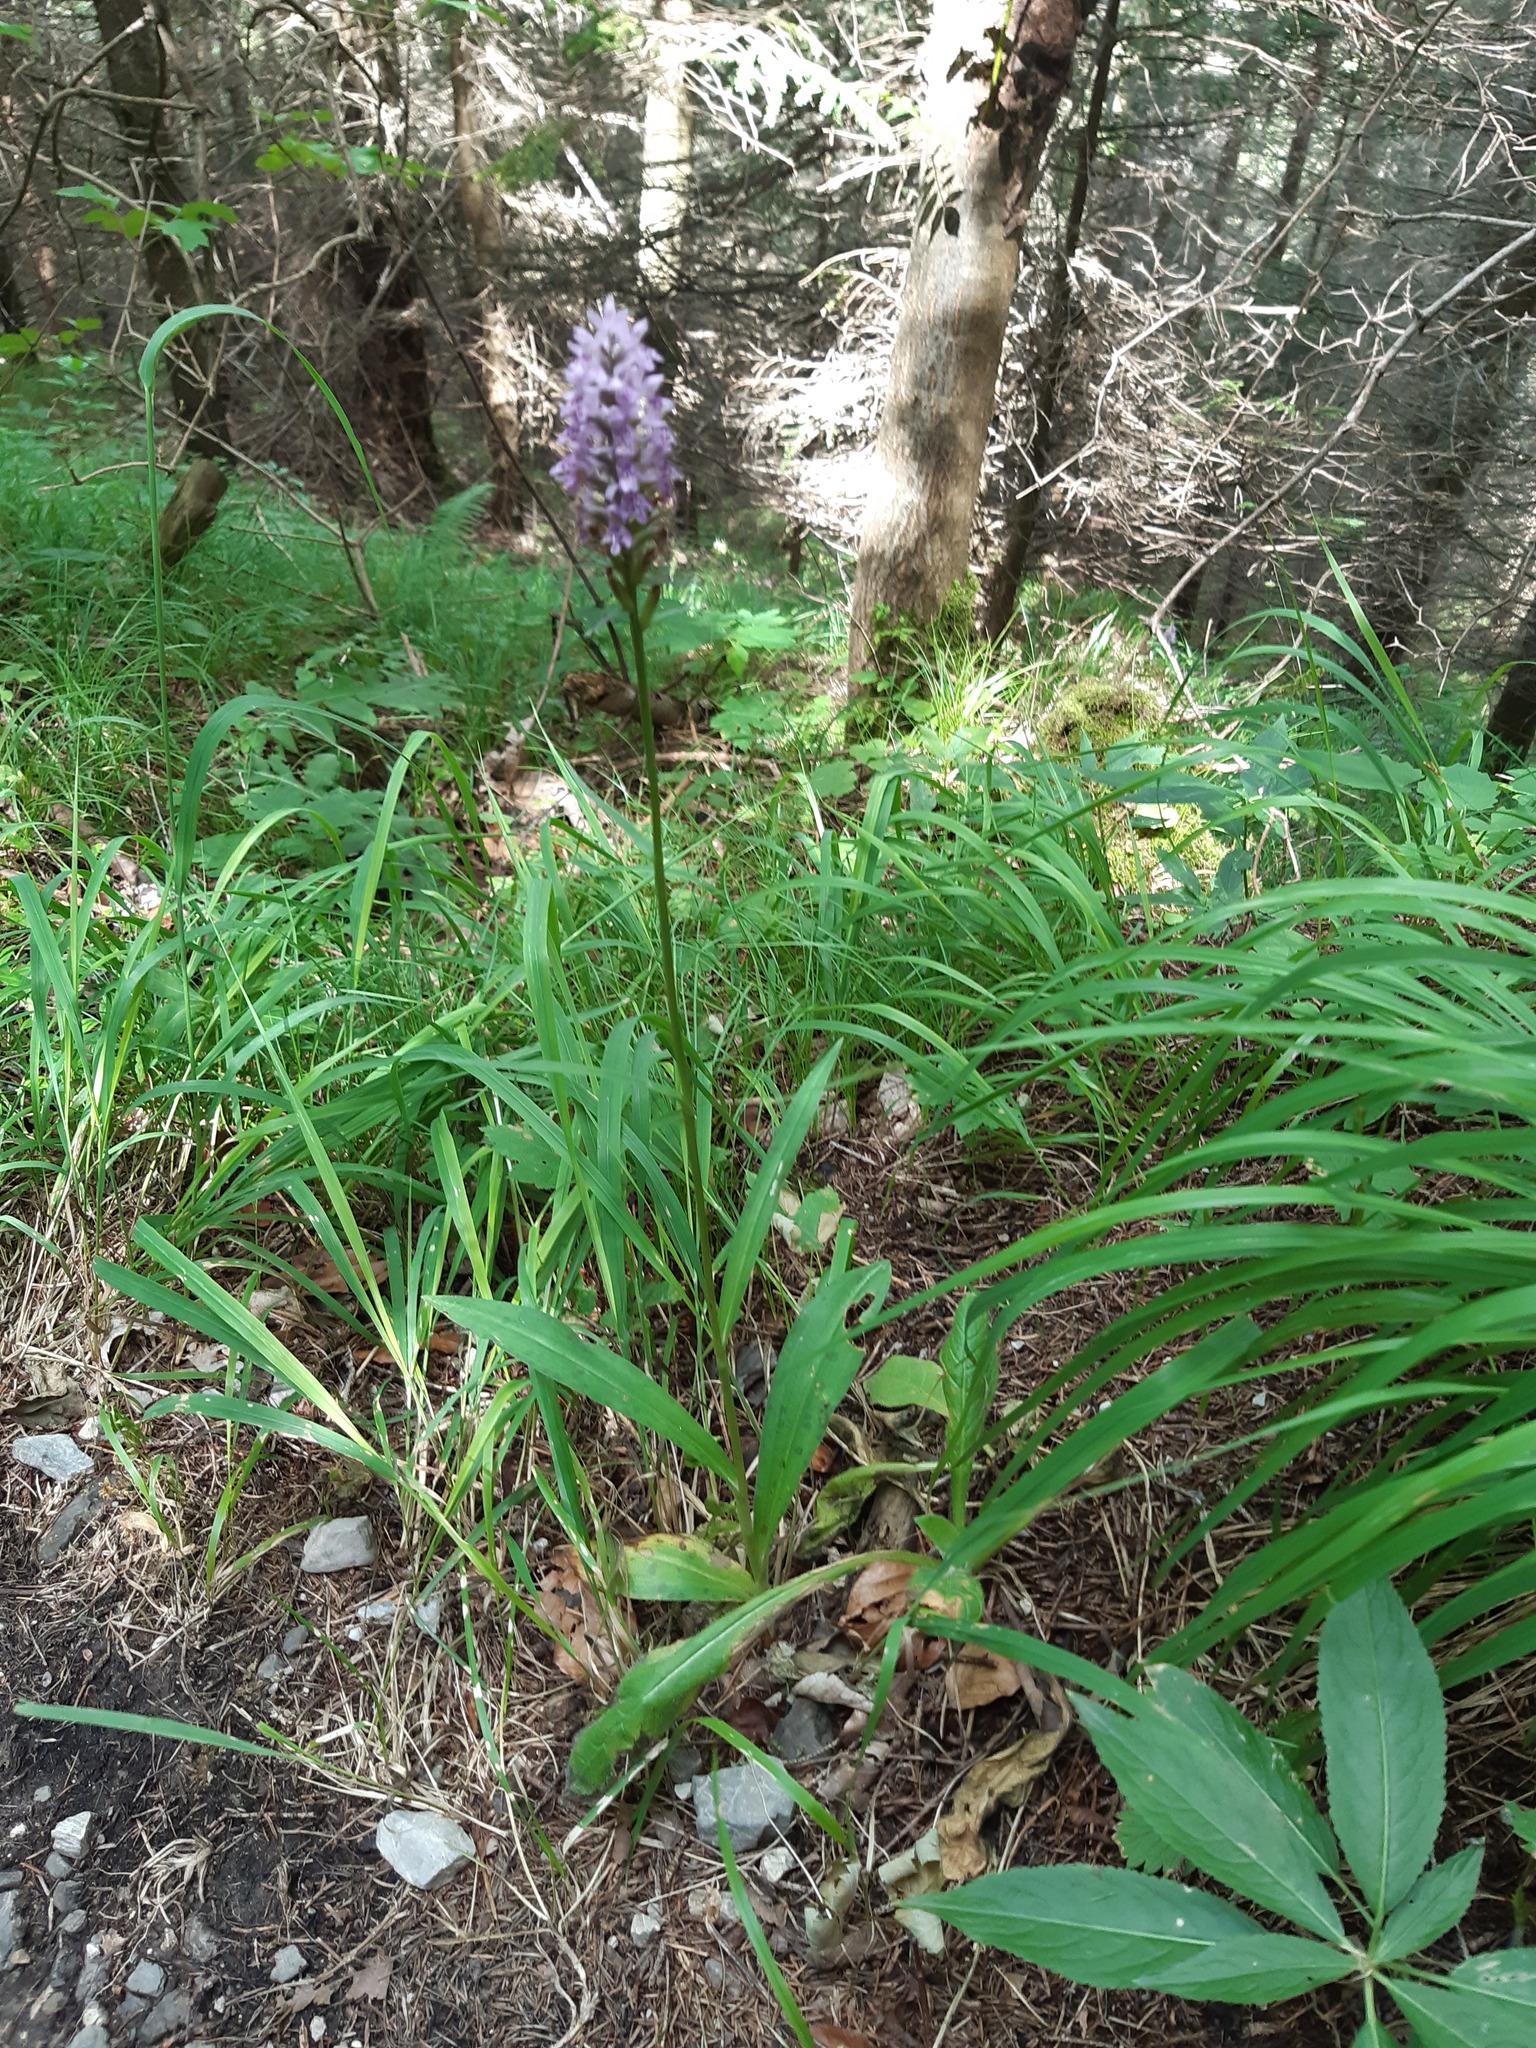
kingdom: Plantae
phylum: Tracheophyta
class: Liliopsida
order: Asparagales
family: Orchidaceae
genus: Dactylorhiza
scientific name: Dactylorhiza maculata
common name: Heath spotted-orchid
